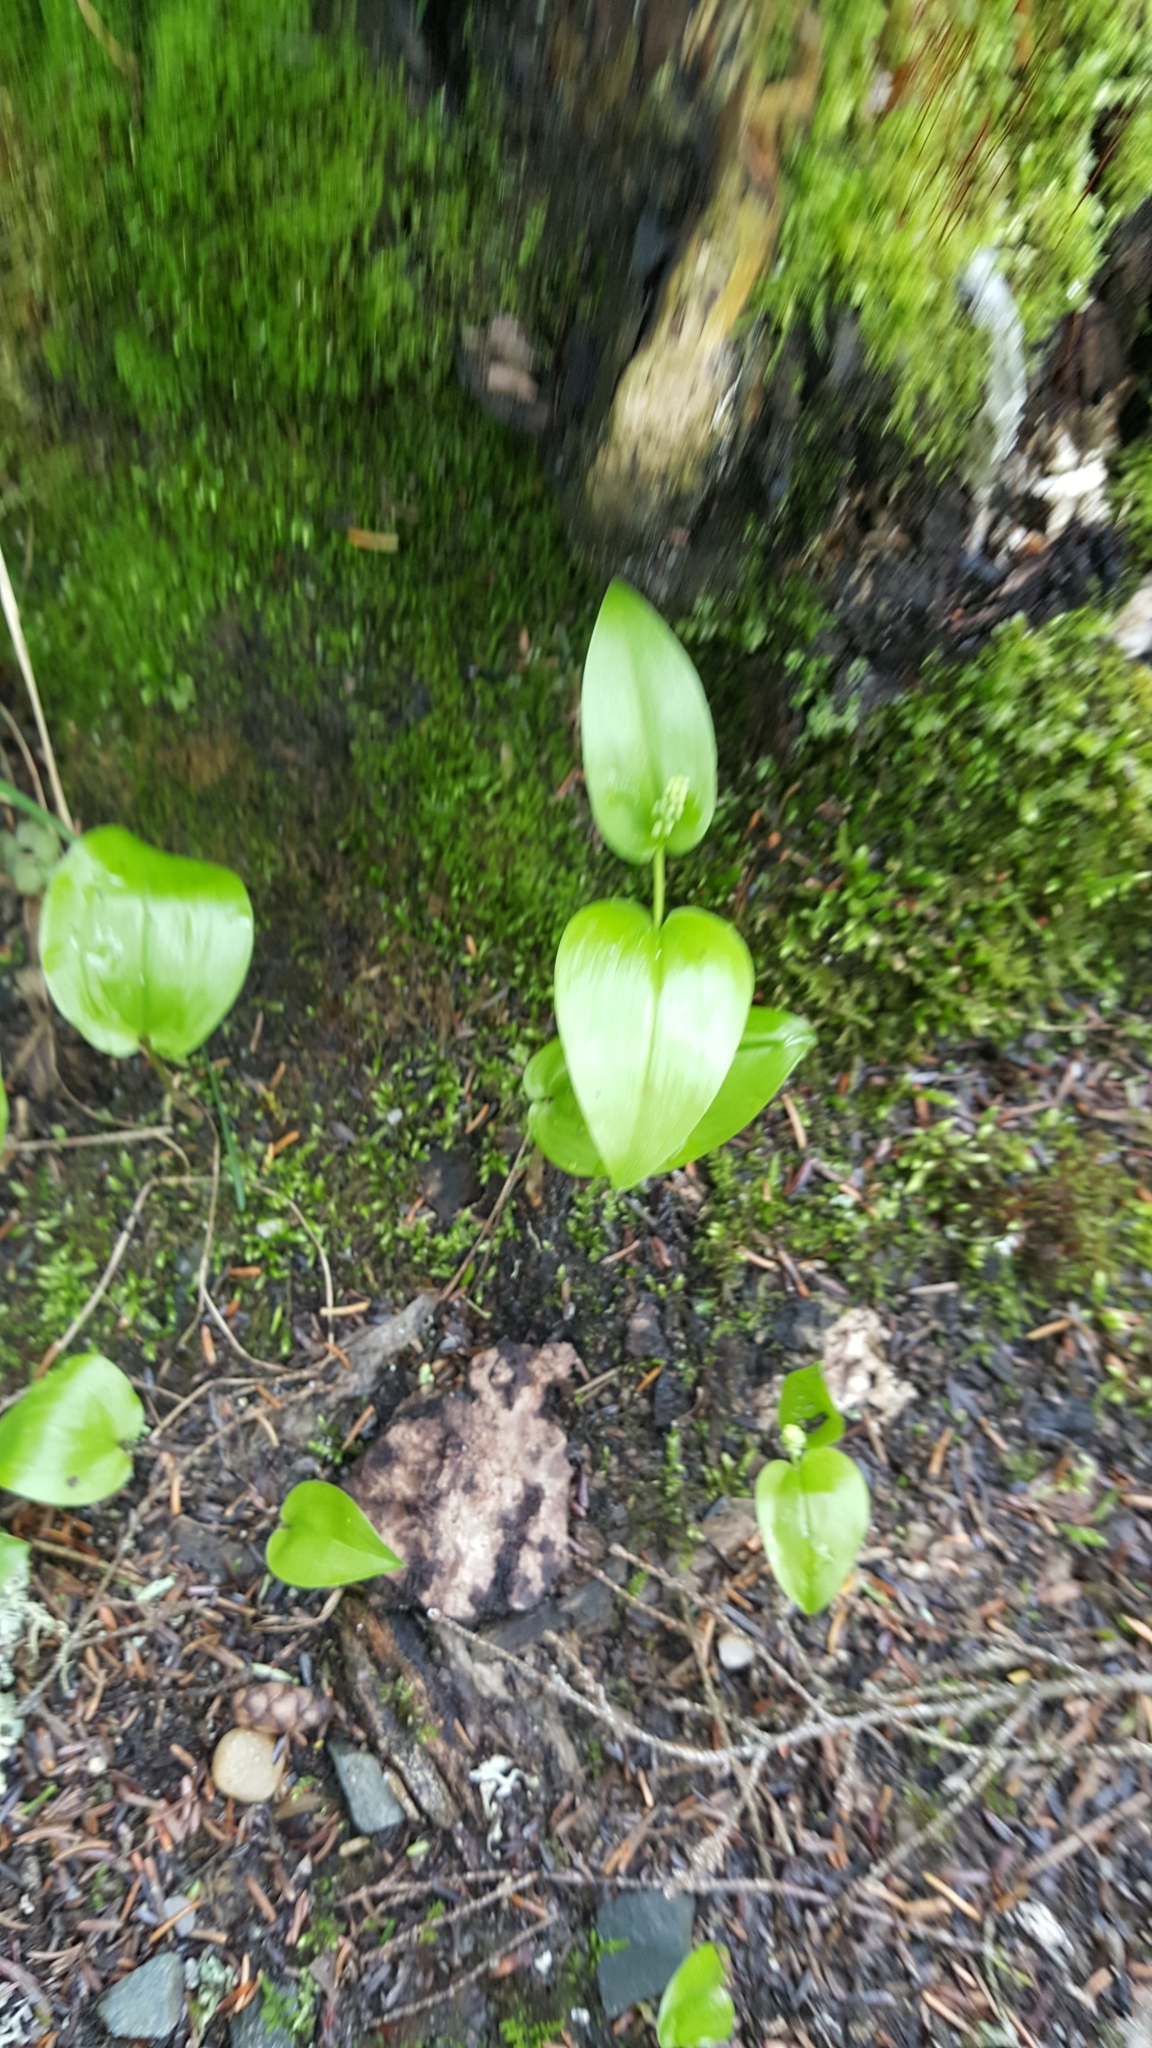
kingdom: Plantae
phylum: Tracheophyta
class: Liliopsida
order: Asparagales
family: Asparagaceae
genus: Maianthemum
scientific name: Maianthemum canadense
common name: False lily-of-the-valley
